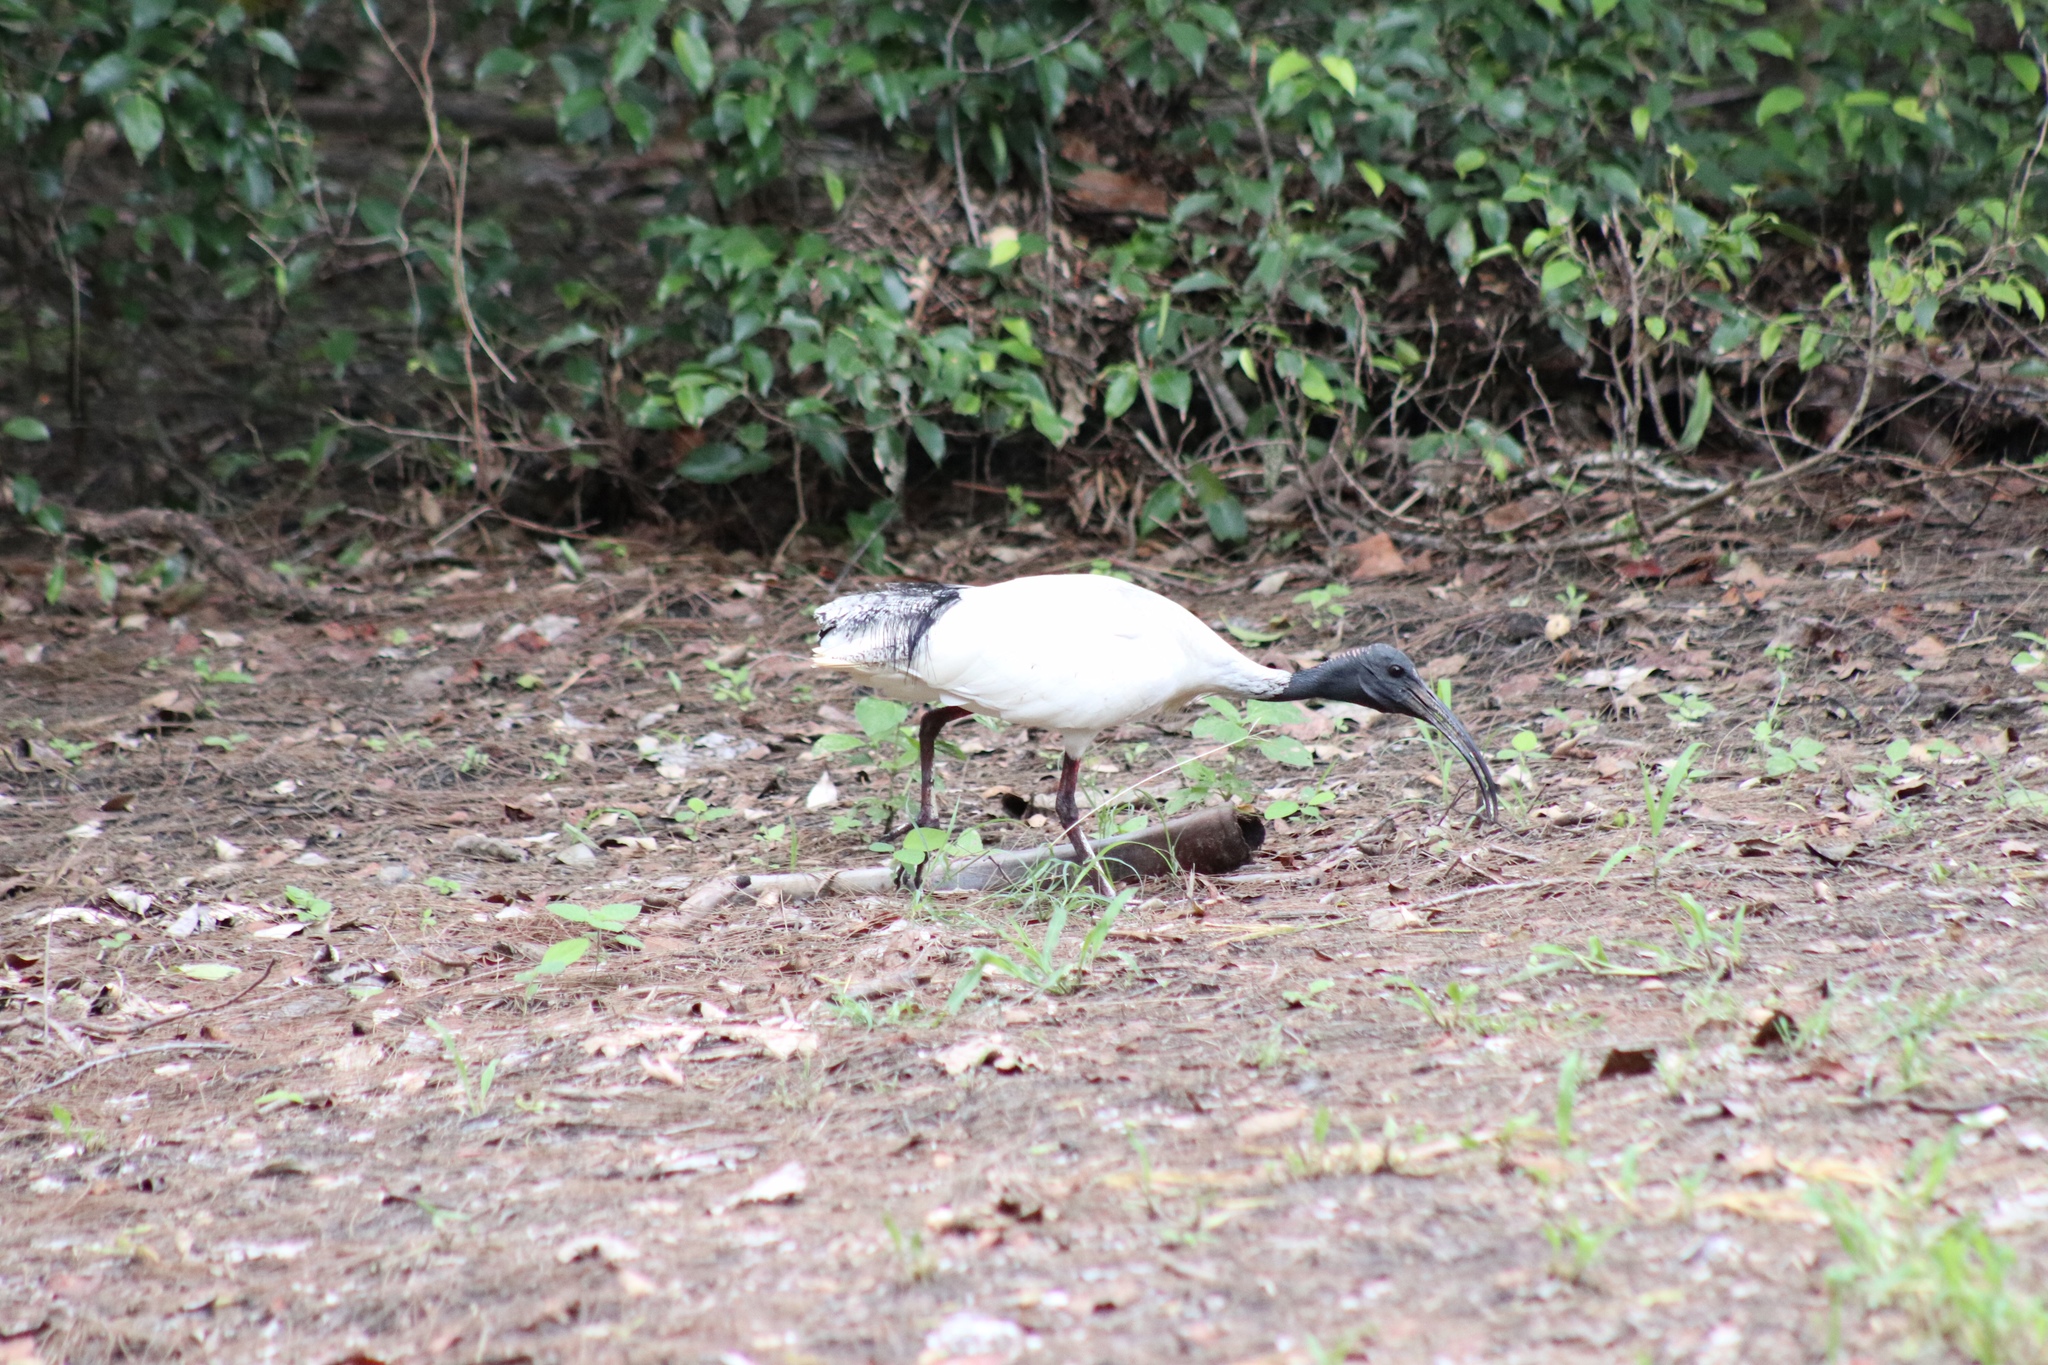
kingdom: Animalia
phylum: Chordata
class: Aves
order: Pelecaniformes
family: Threskiornithidae
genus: Threskiornis
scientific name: Threskiornis molucca
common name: Australian white ibis
